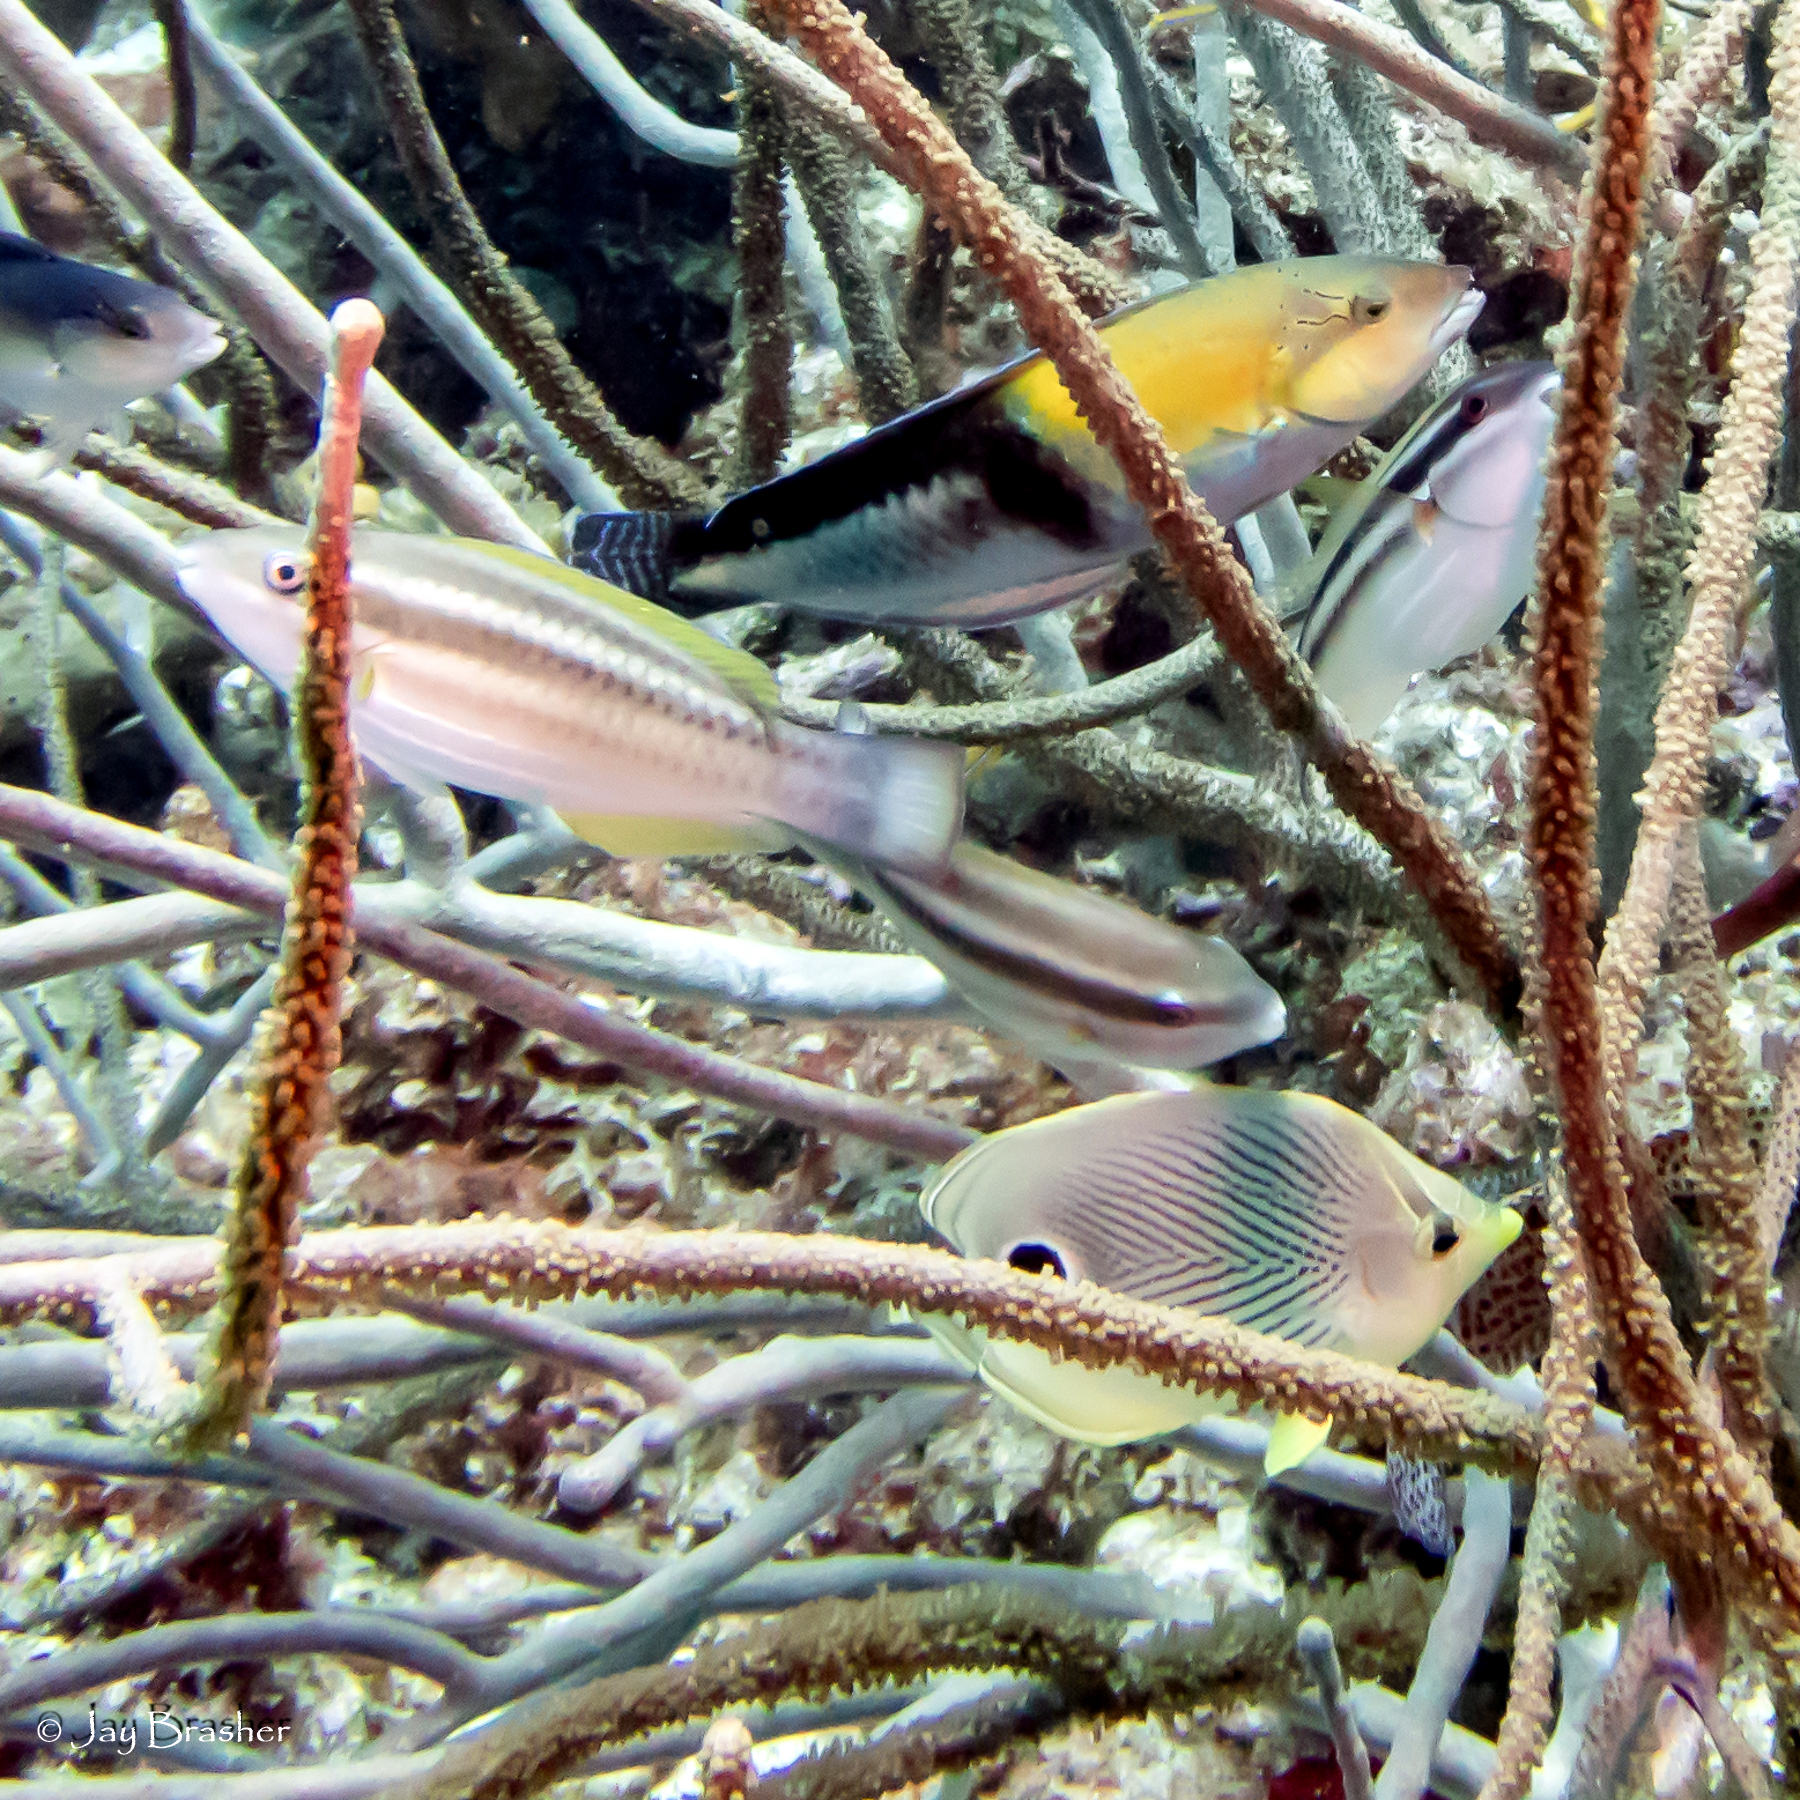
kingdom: Animalia
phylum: Chordata
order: Perciformes
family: Chaetodontidae
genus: Chaetodon
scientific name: Chaetodon capistratus
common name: Kete
